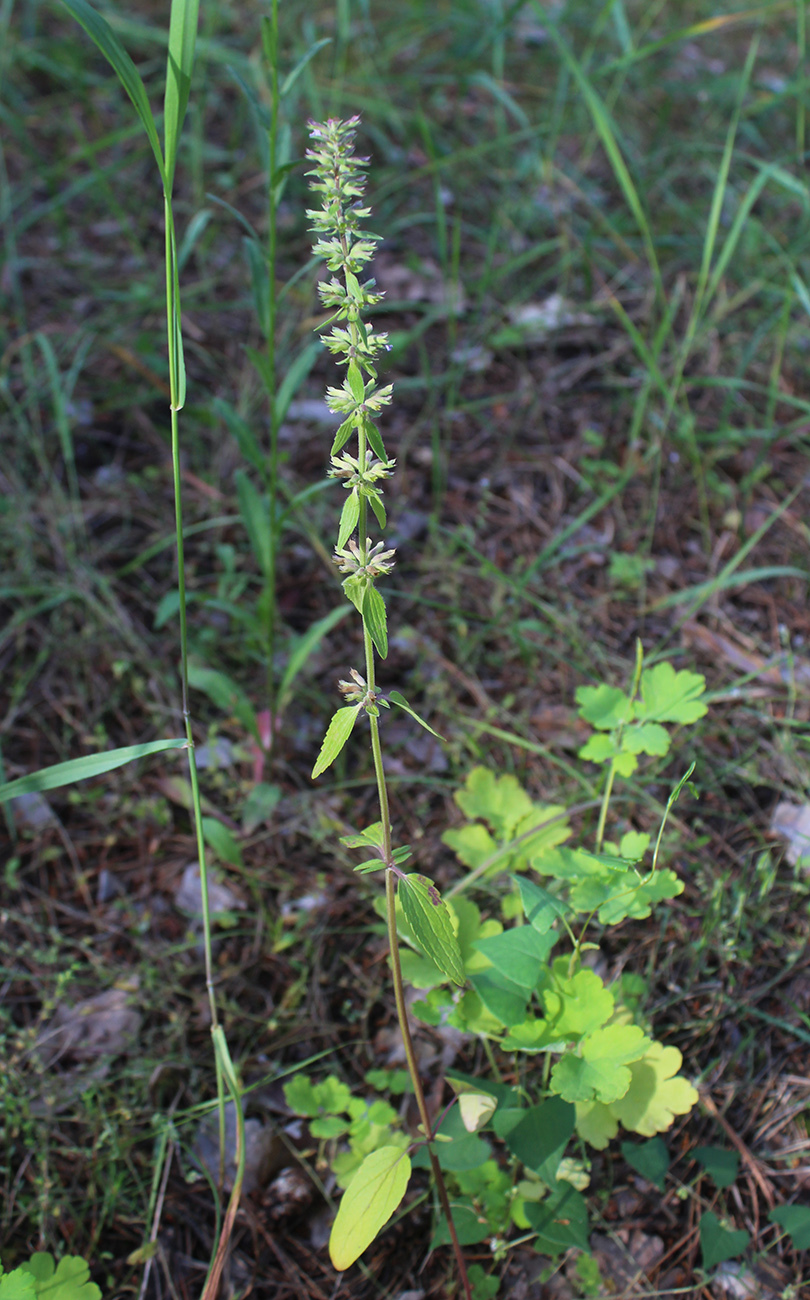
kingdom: Plantae
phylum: Tracheophyta
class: Magnoliopsida
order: Lamiales
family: Lamiaceae
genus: Dracocephalum
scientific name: Dracocephalum thymiflorum
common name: Thymeleaf dragonhead
